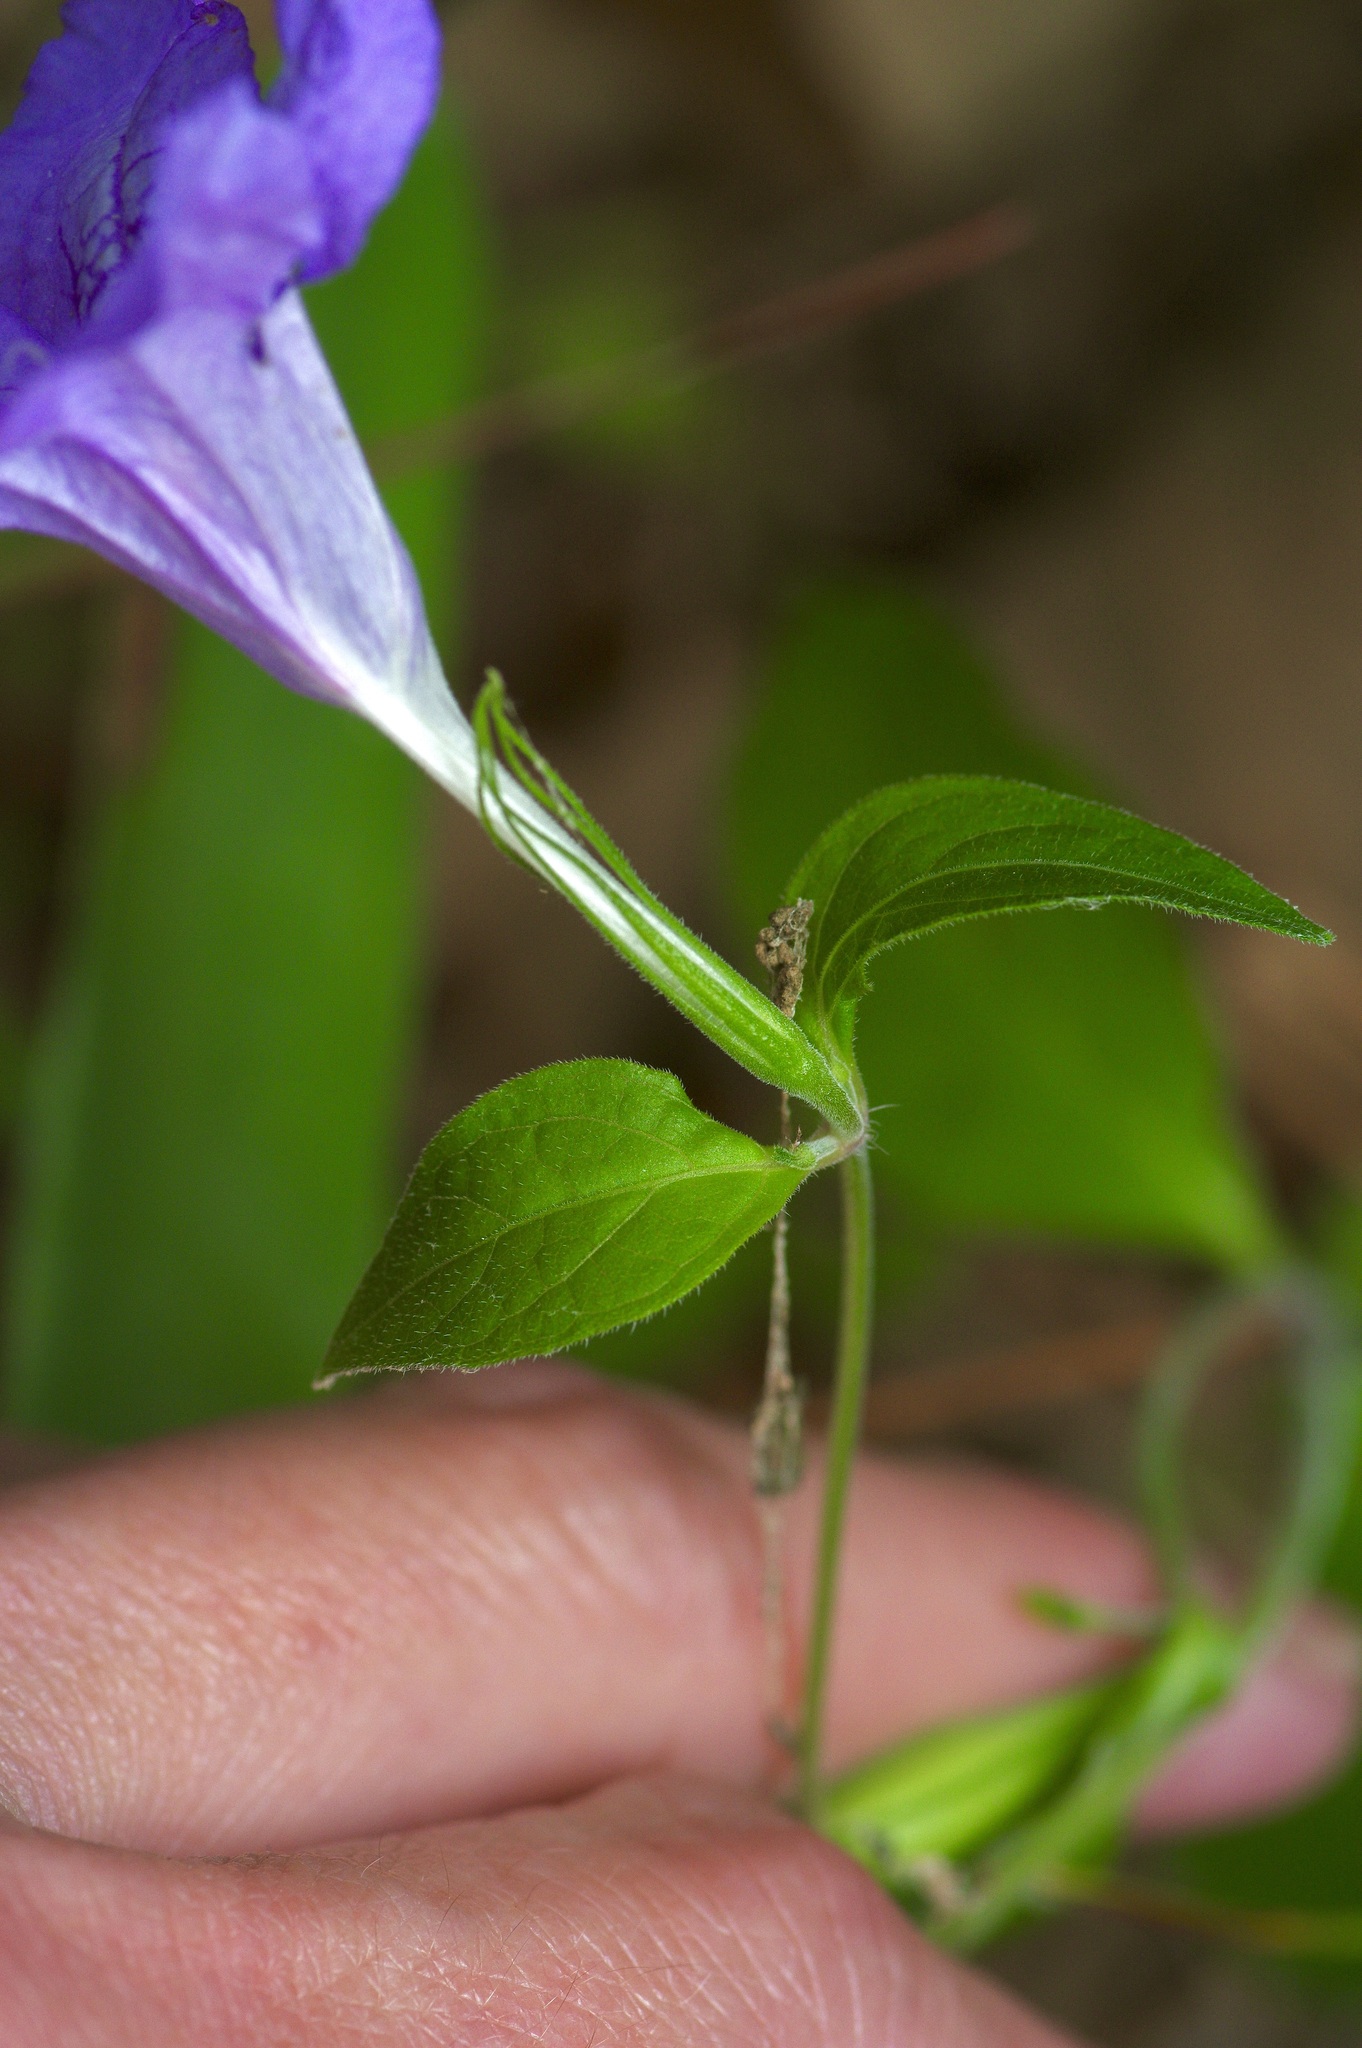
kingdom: Plantae
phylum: Tracheophyta
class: Magnoliopsida
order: Lamiales
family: Acanthaceae
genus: Ruellia
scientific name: Ruellia pedunculata
